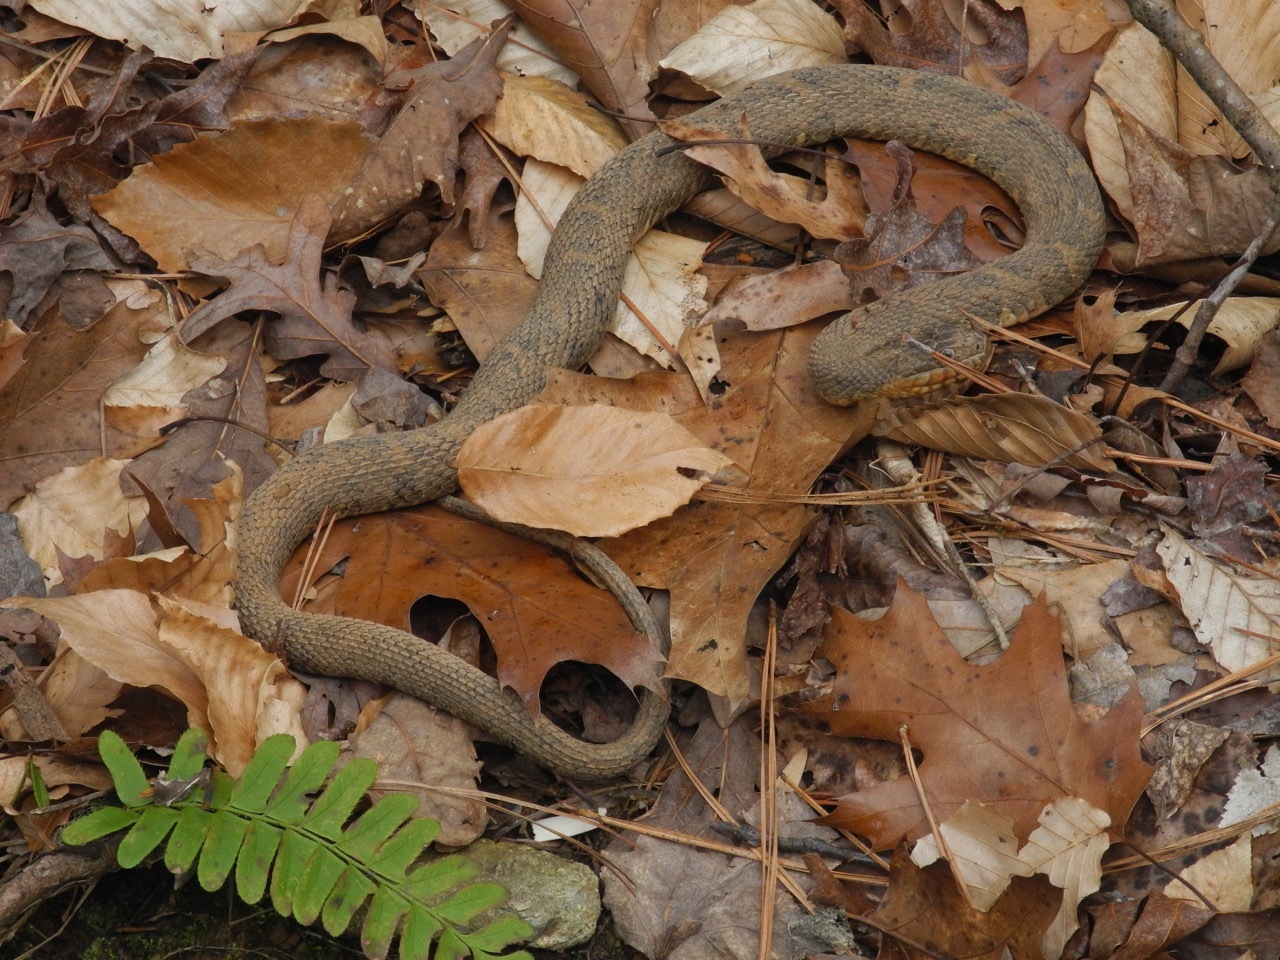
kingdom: Animalia
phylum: Chordata
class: Squamata
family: Colubridae
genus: Nerodia
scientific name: Nerodia sipedon
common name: Northern water snake
